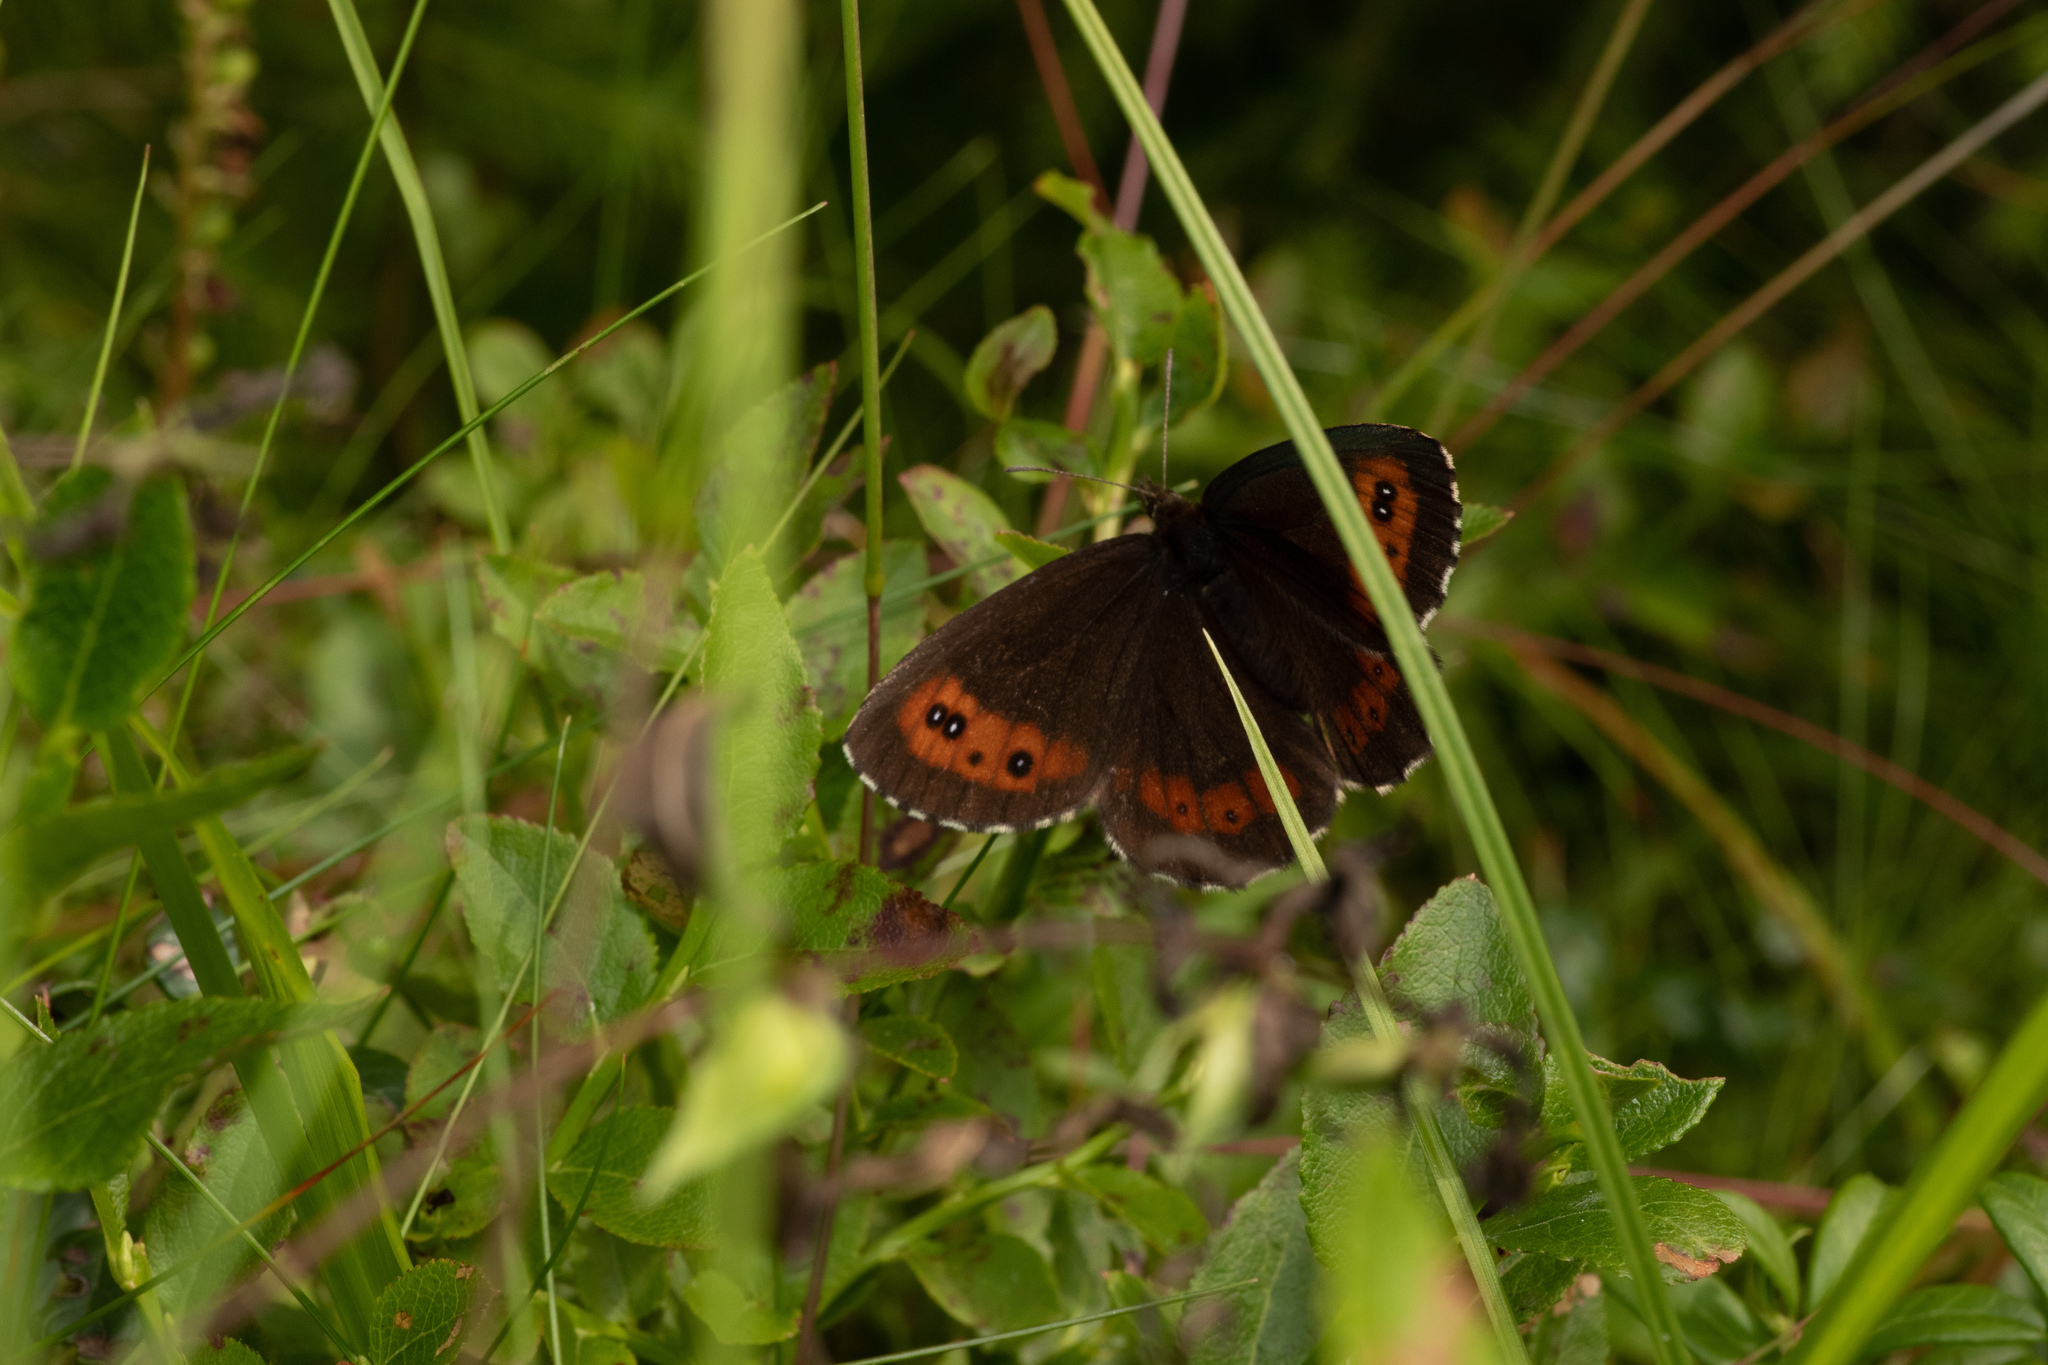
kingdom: Animalia
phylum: Arthropoda
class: Insecta
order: Lepidoptera
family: Nymphalidae
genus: Erebia
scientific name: Erebia ligea
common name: Arran brown
